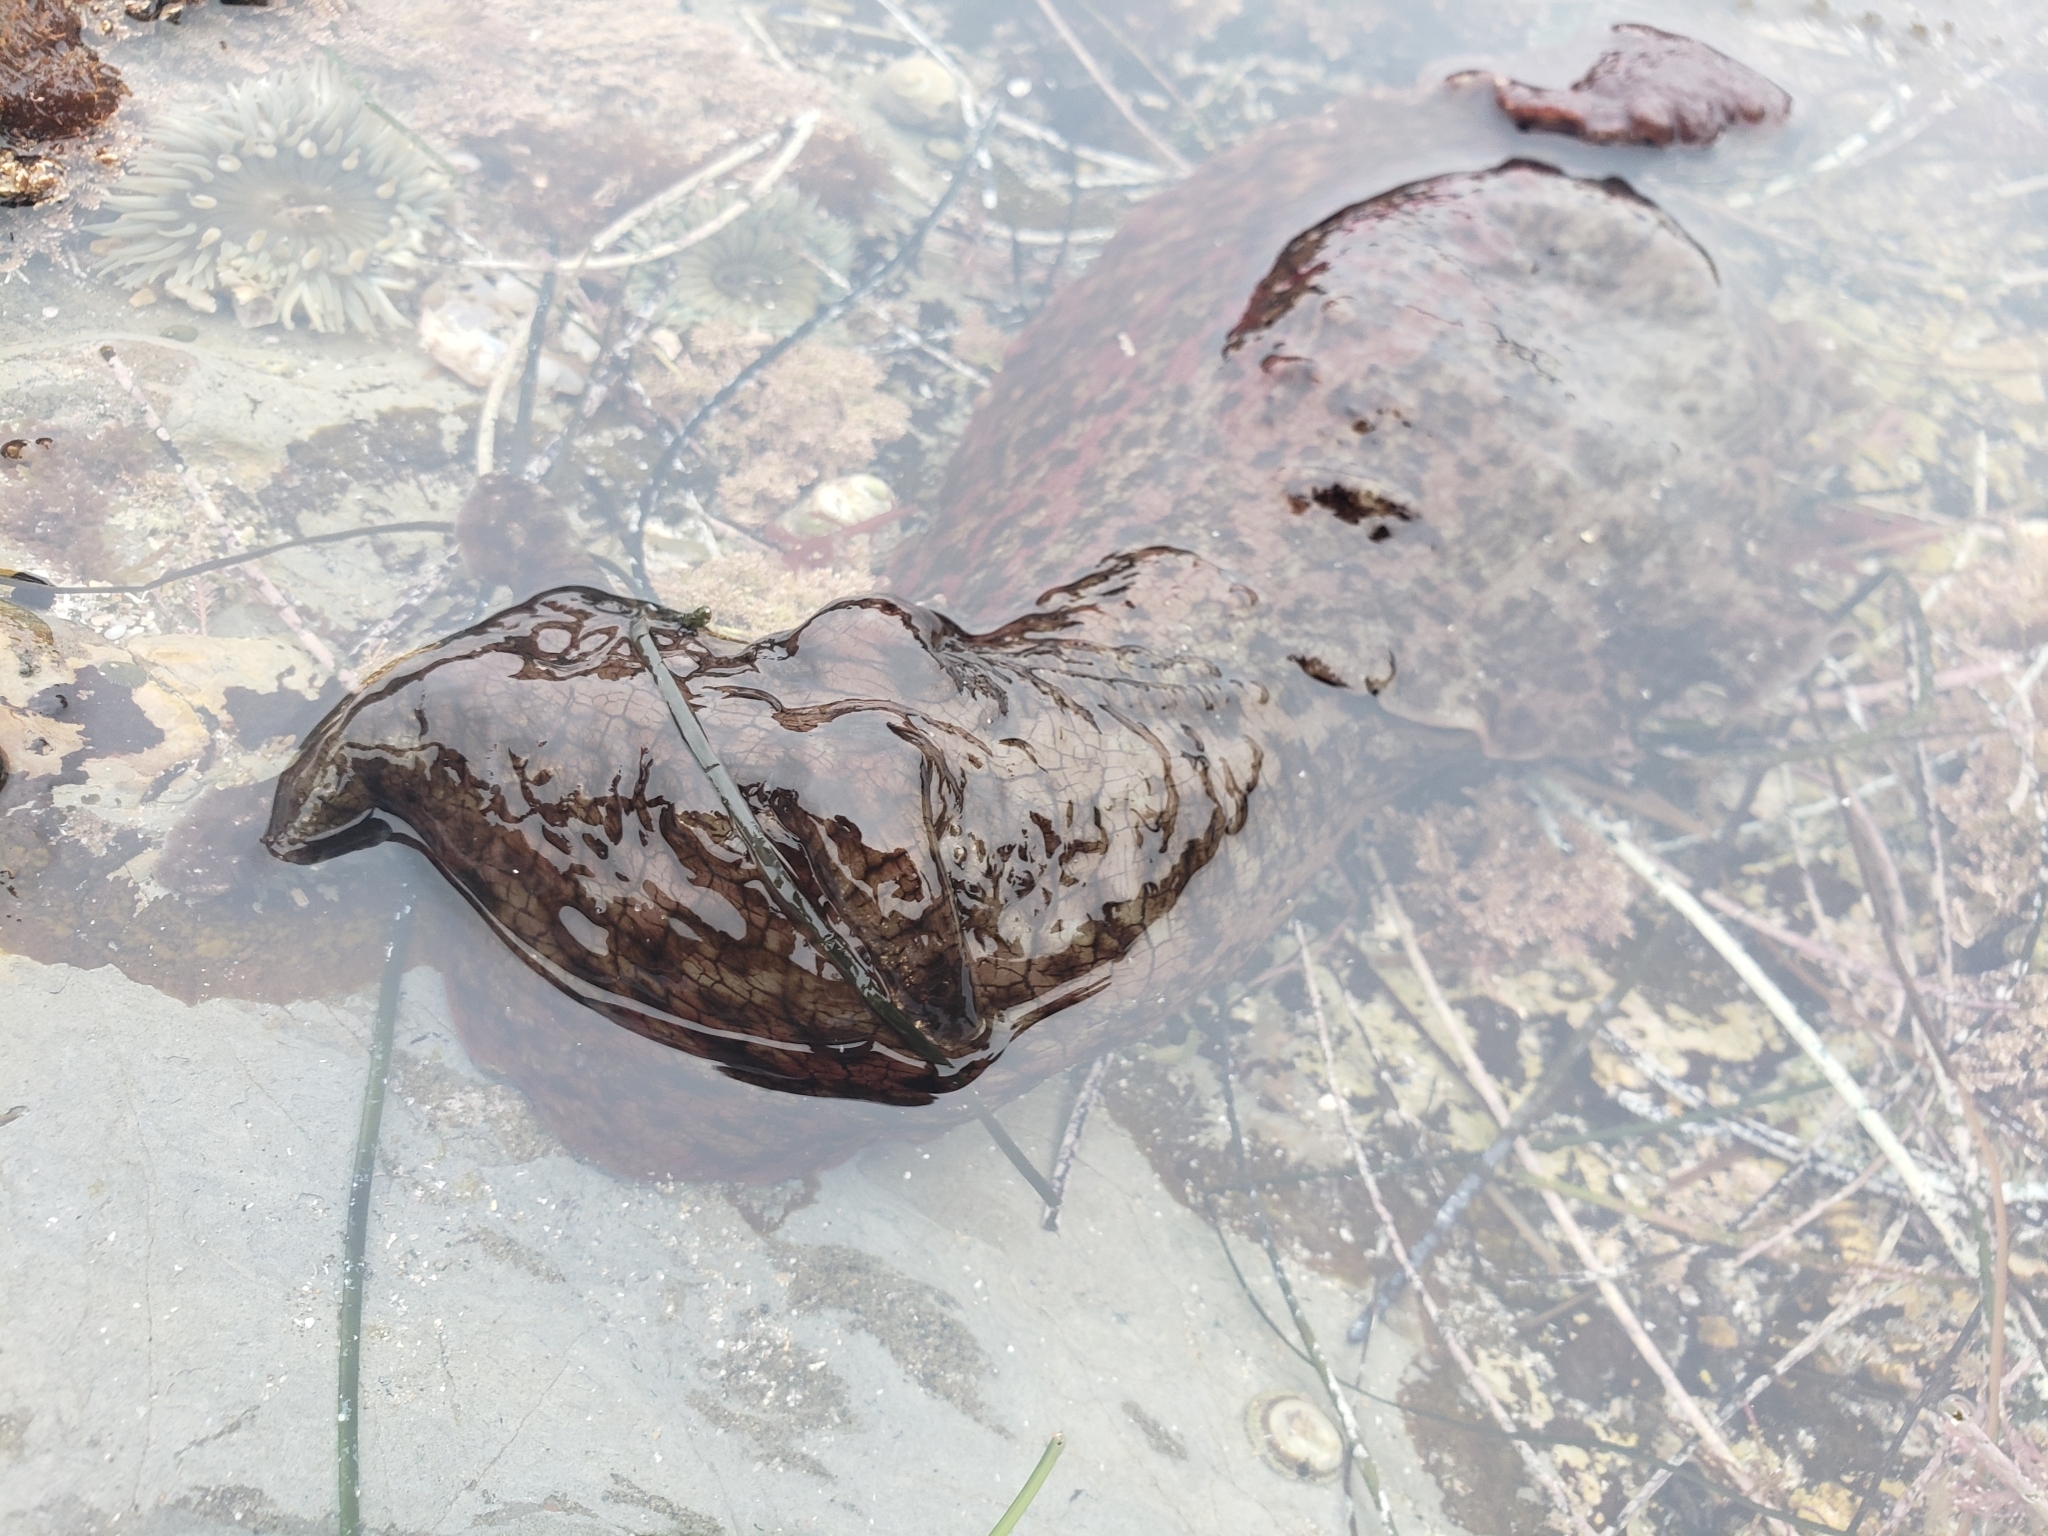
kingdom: Animalia
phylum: Mollusca
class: Gastropoda
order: Aplysiida
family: Aplysiidae
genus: Aplysia
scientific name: Aplysia californica
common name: California seahare
